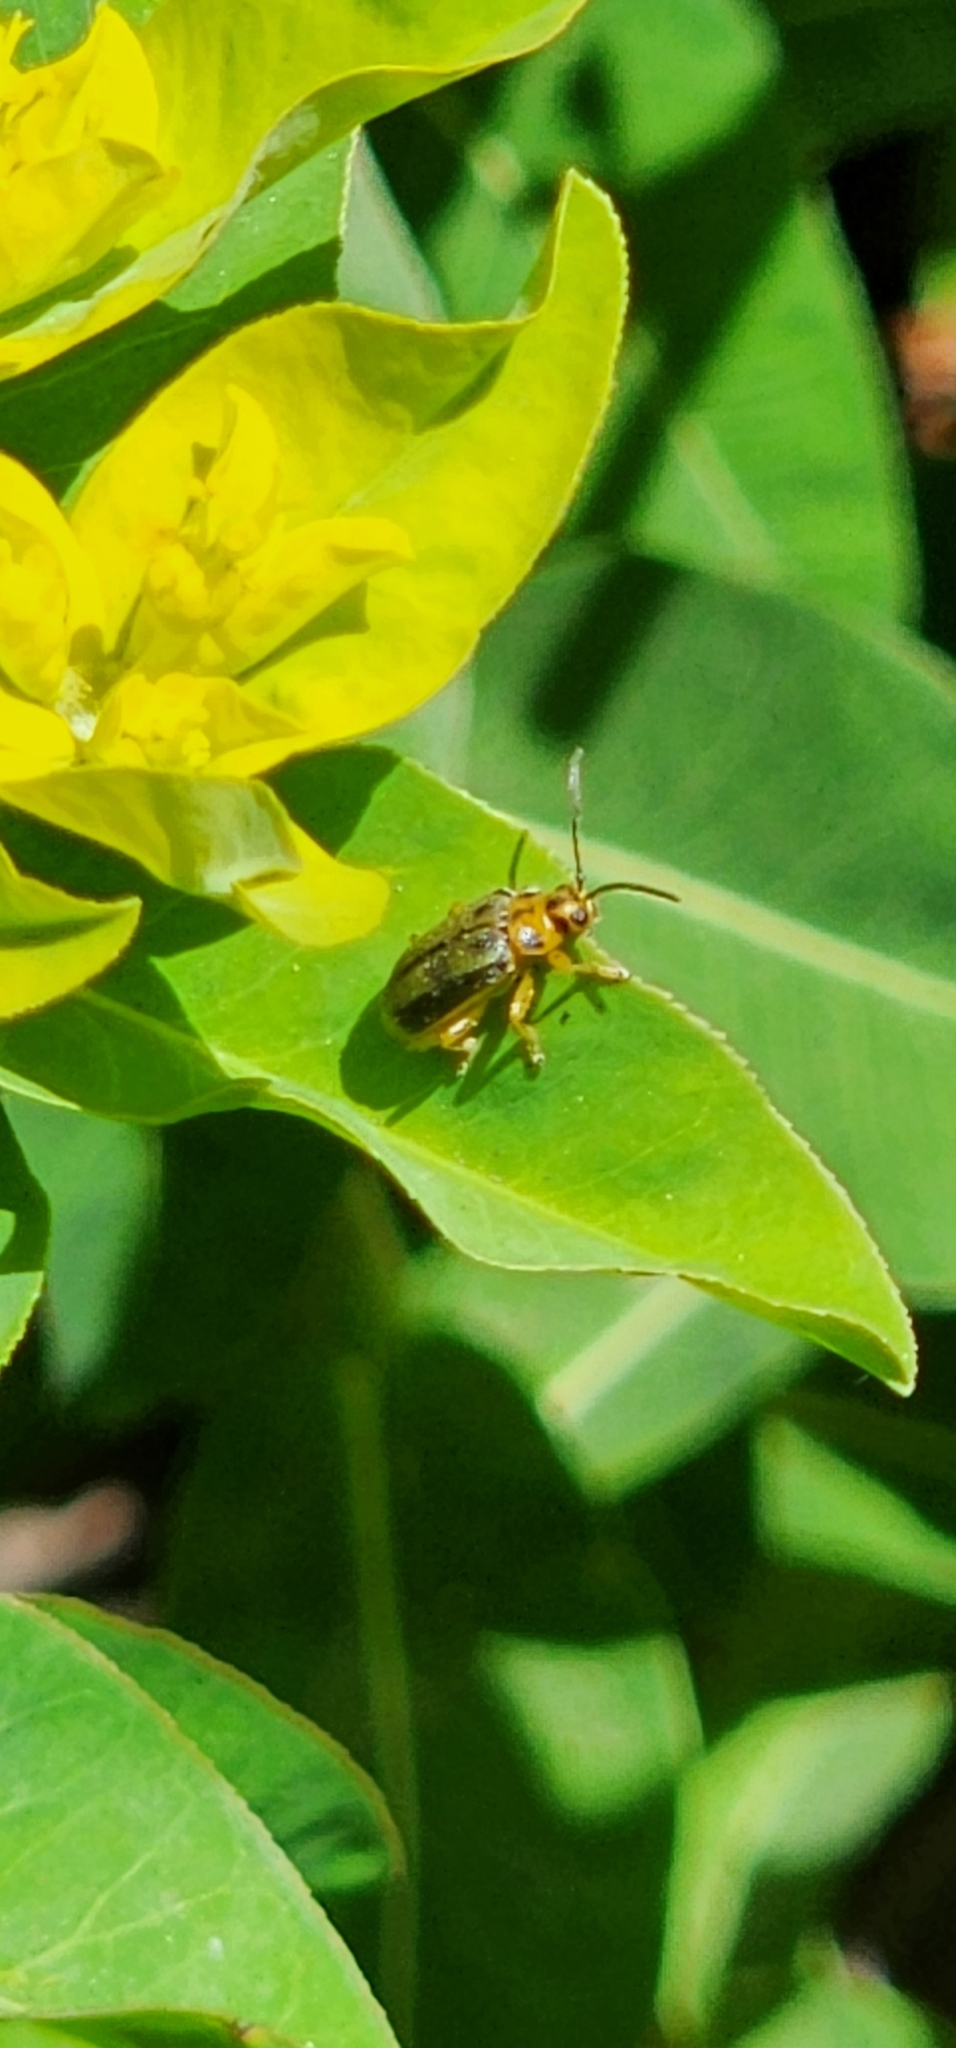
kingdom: Animalia
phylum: Arthropoda
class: Insecta
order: Coleoptera
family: Chrysomelidae
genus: Xanthogaleruca
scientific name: Xanthogaleruca luteola
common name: Elm leaf beetle
